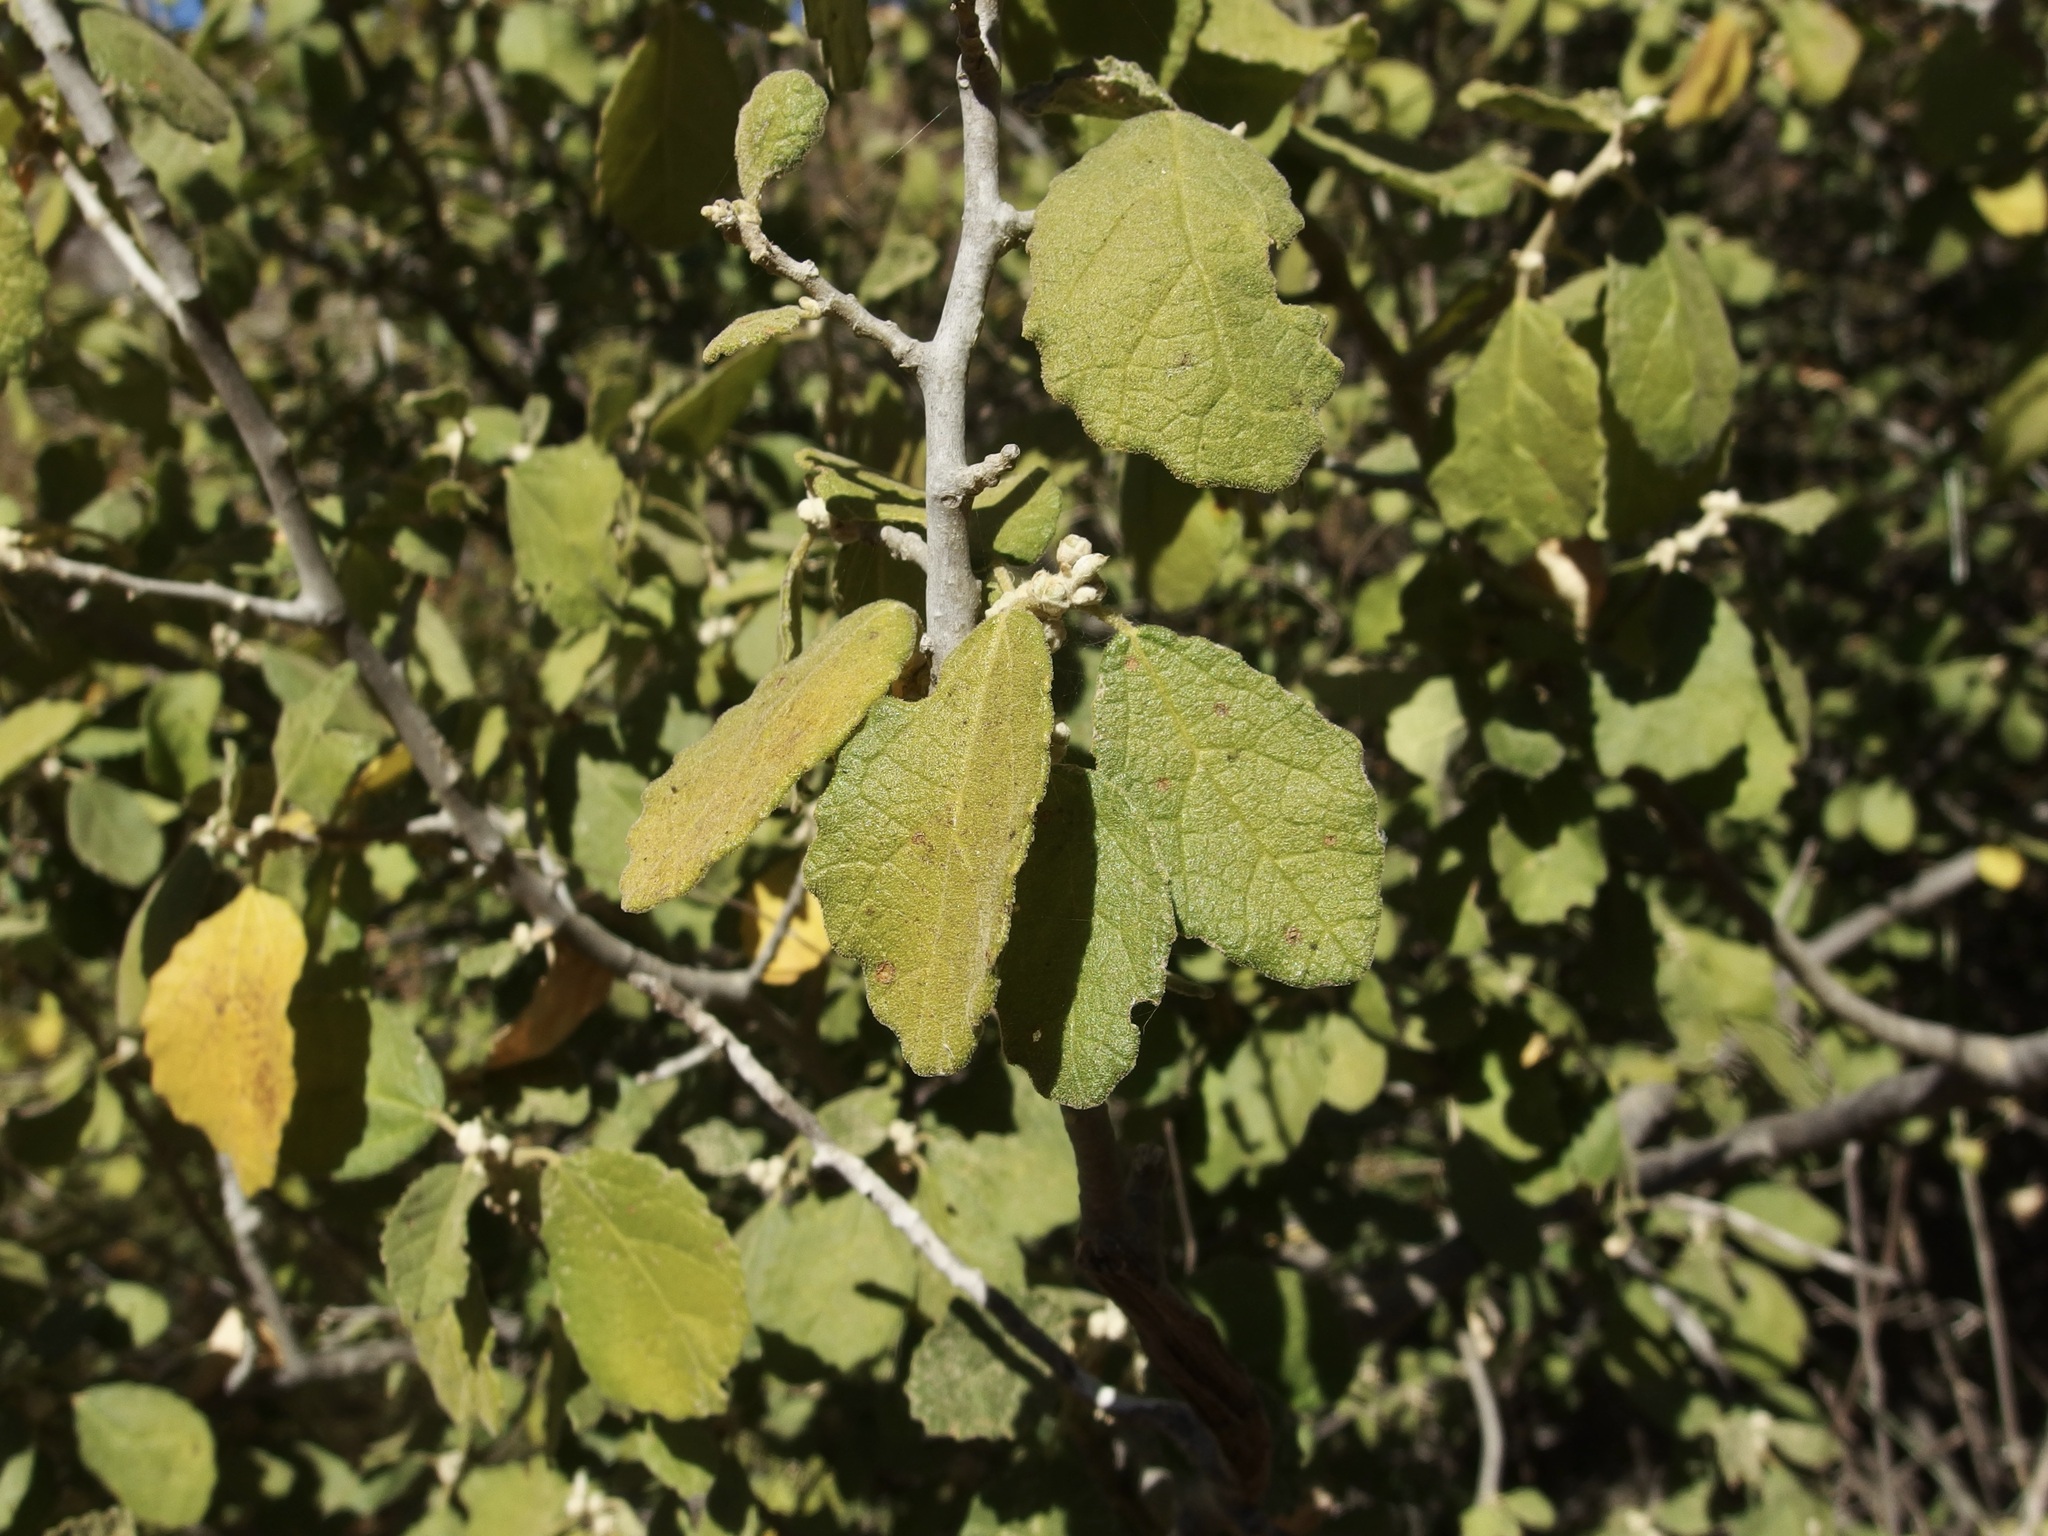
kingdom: Plantae
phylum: Tracheophyta
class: Magnoliopsida
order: Malpighiales
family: Euphorbiaceae
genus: Bernardia
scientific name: Bernardia viridis
